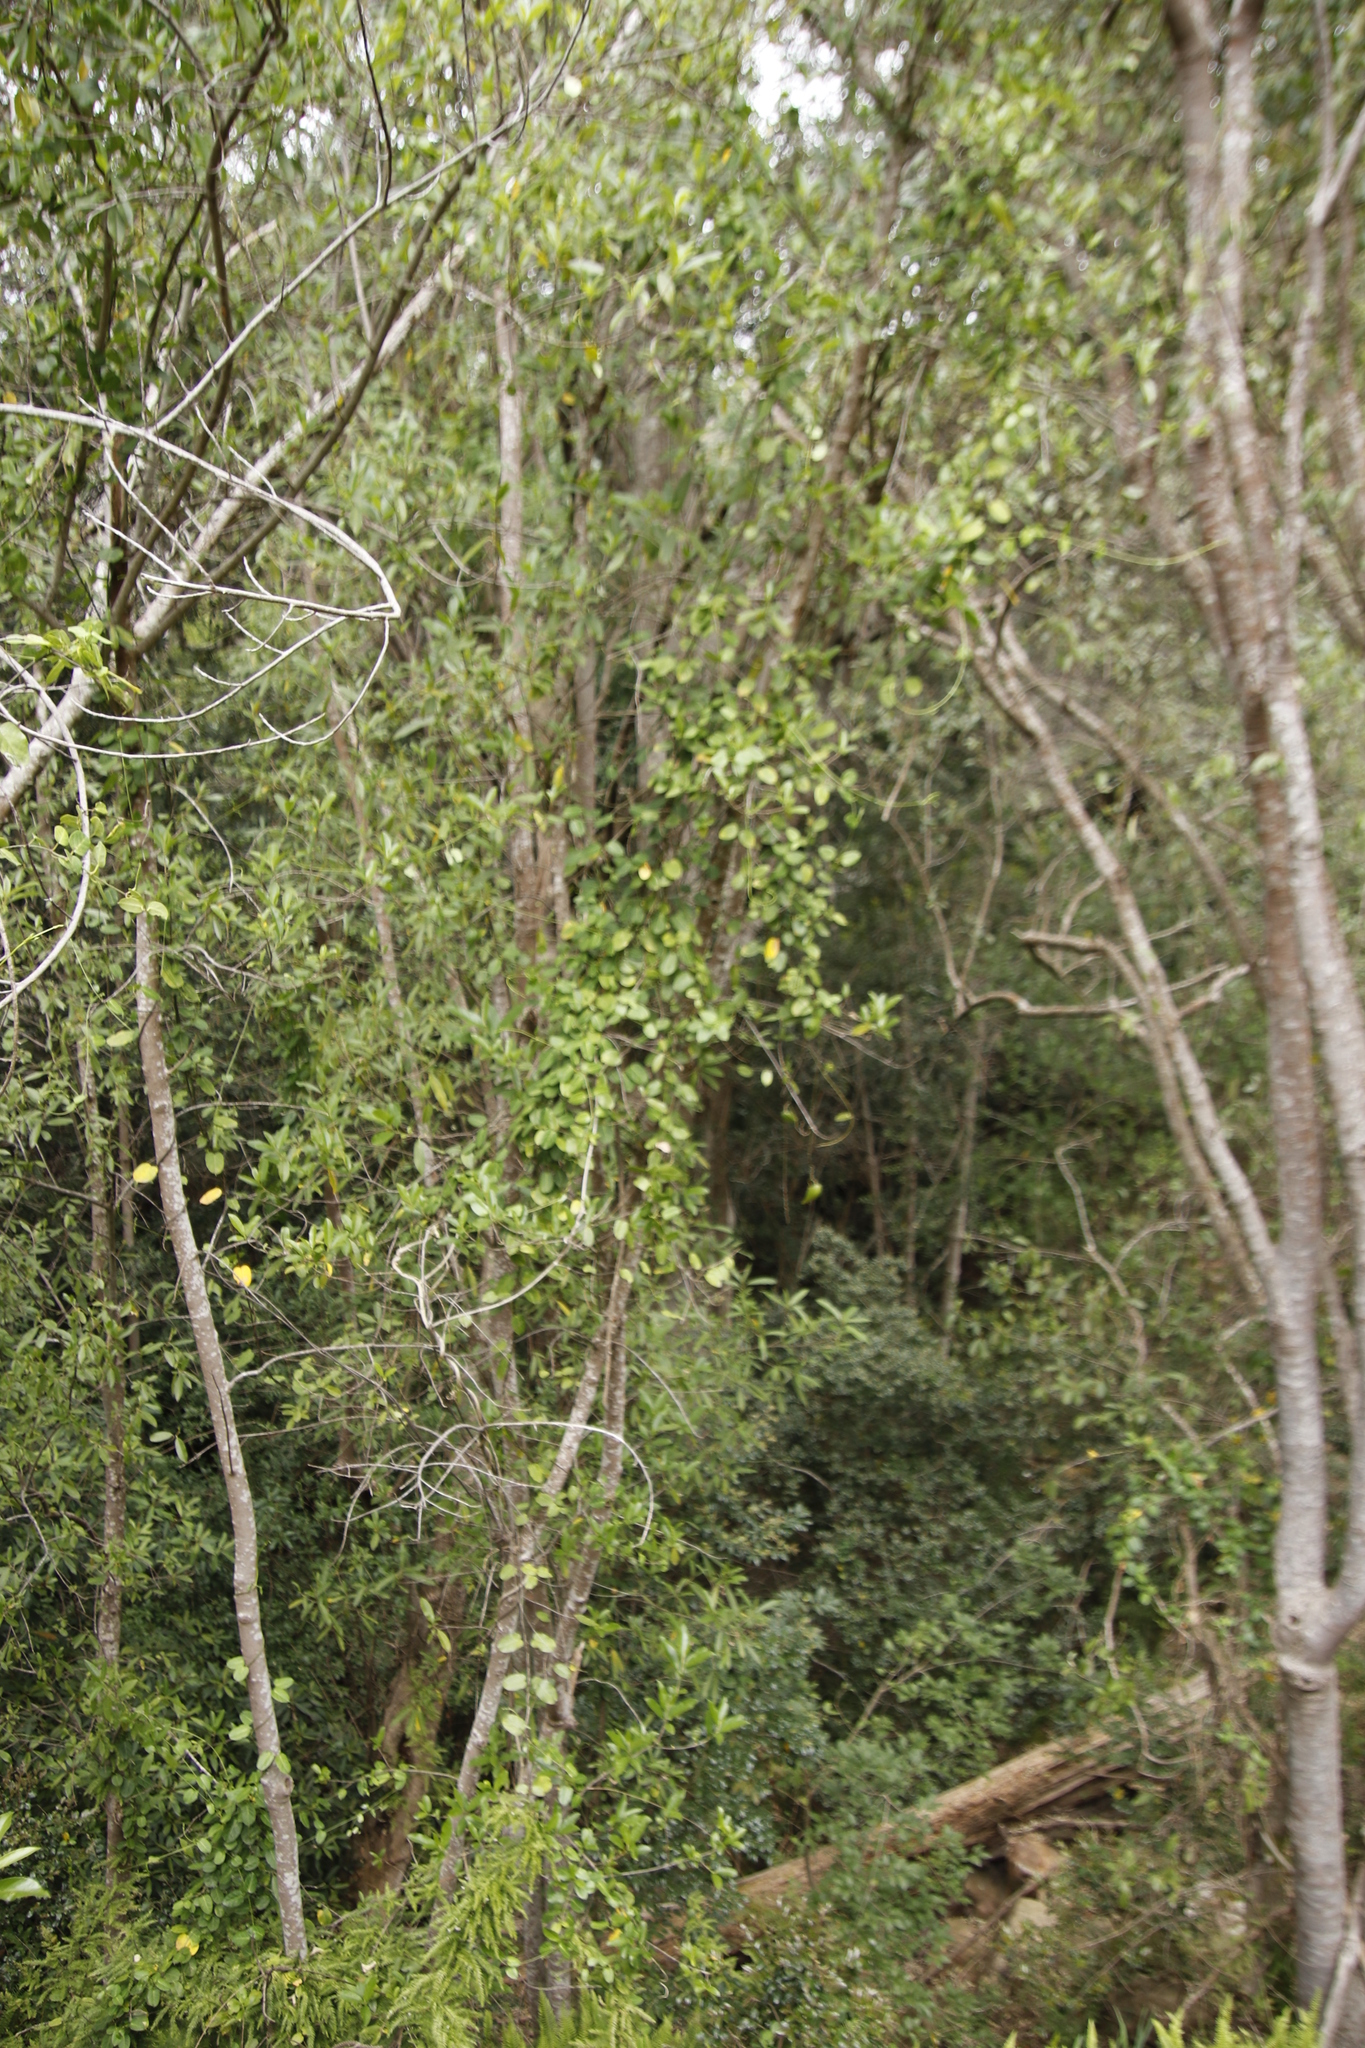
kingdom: Plantae
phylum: Tracheophyta
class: Magnoliopsida
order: Gentianales
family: Apocynaceae
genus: Cynanchum
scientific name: Cynanchum obtusifolium
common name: Monkey-rope
